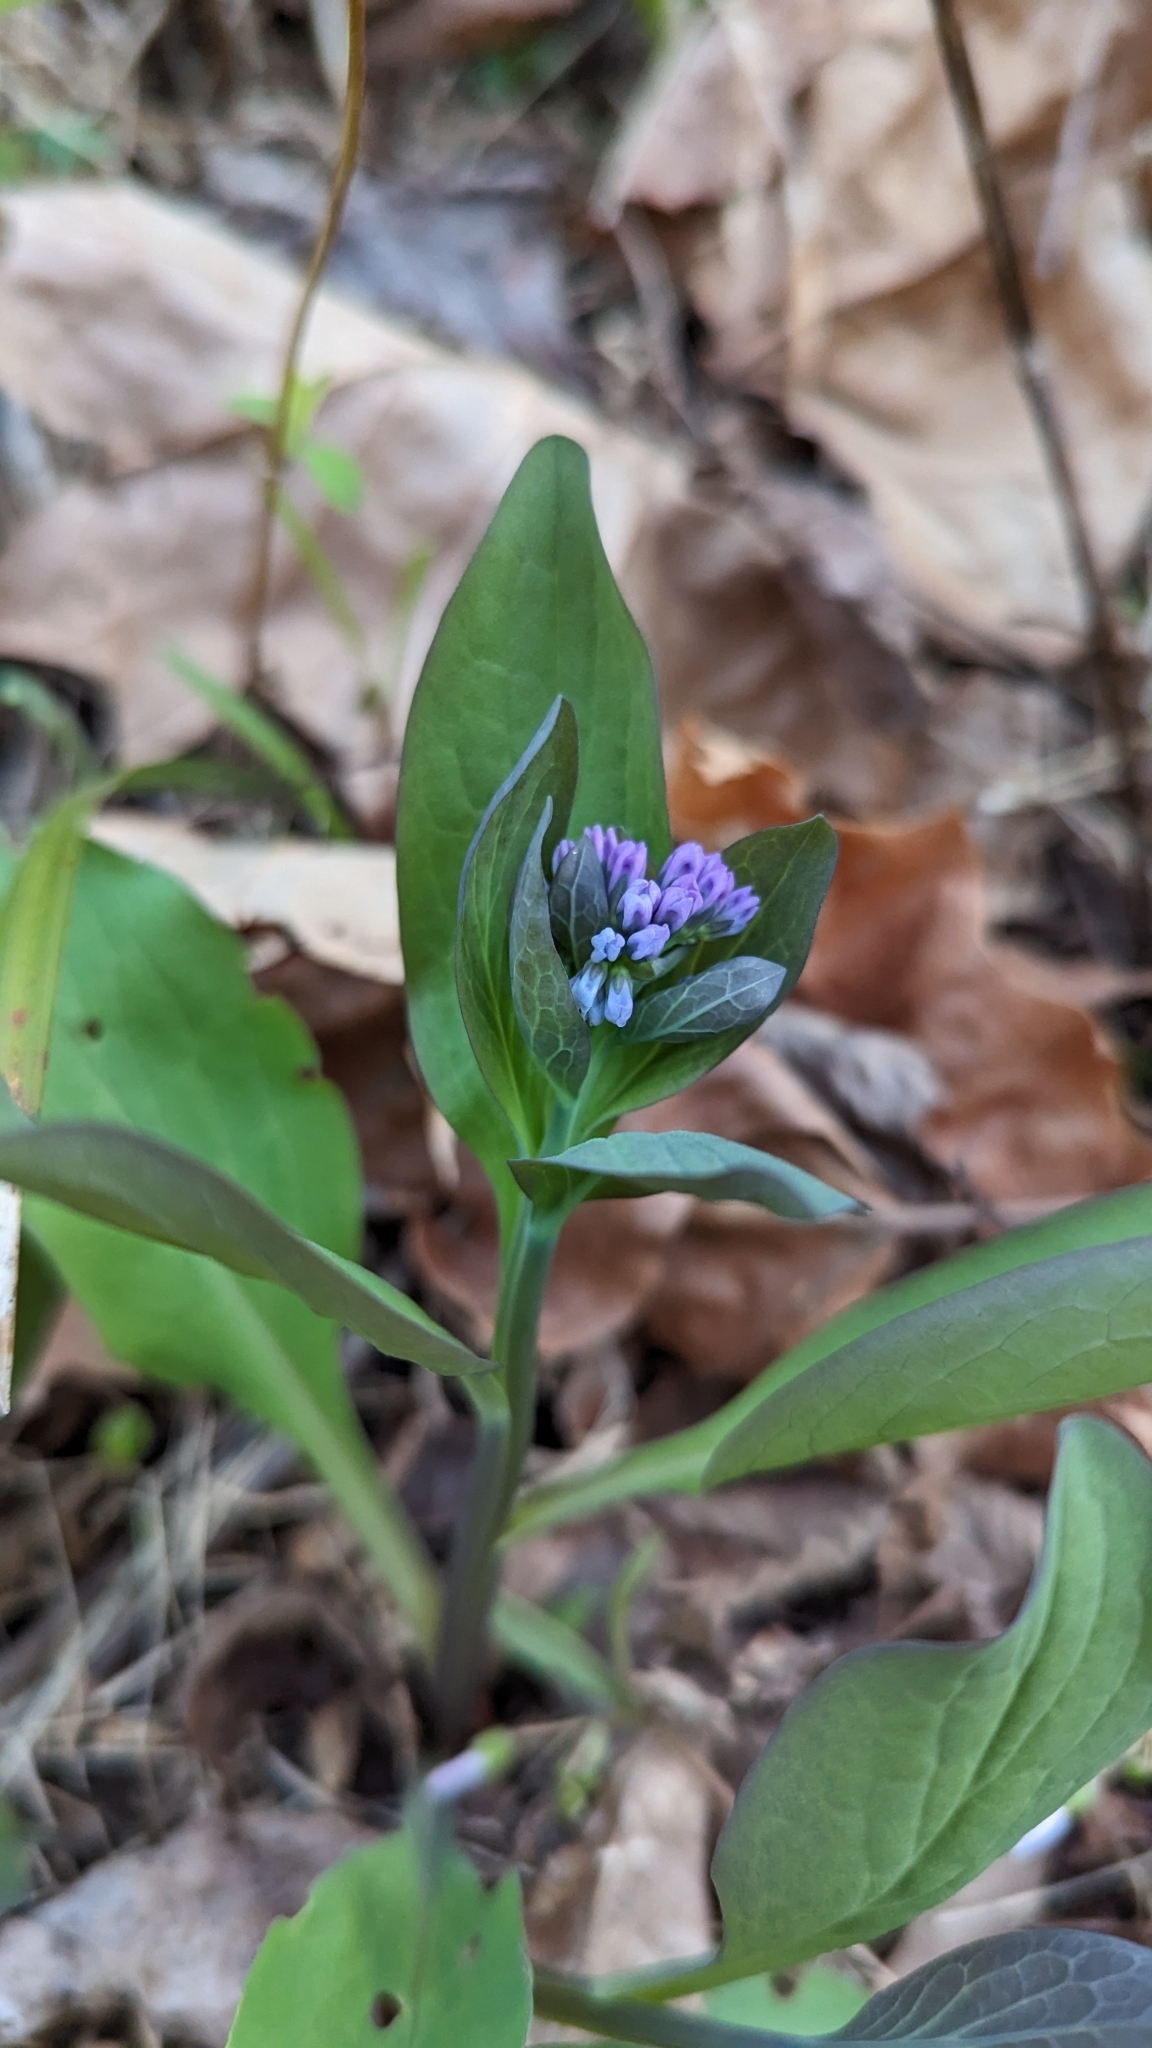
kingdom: Plantae
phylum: Tracheophyta
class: Magnoliopsida
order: Boraginales
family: Boraginaceae
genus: Mertensia
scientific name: Mertensia virginica
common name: Virginia bluebells
